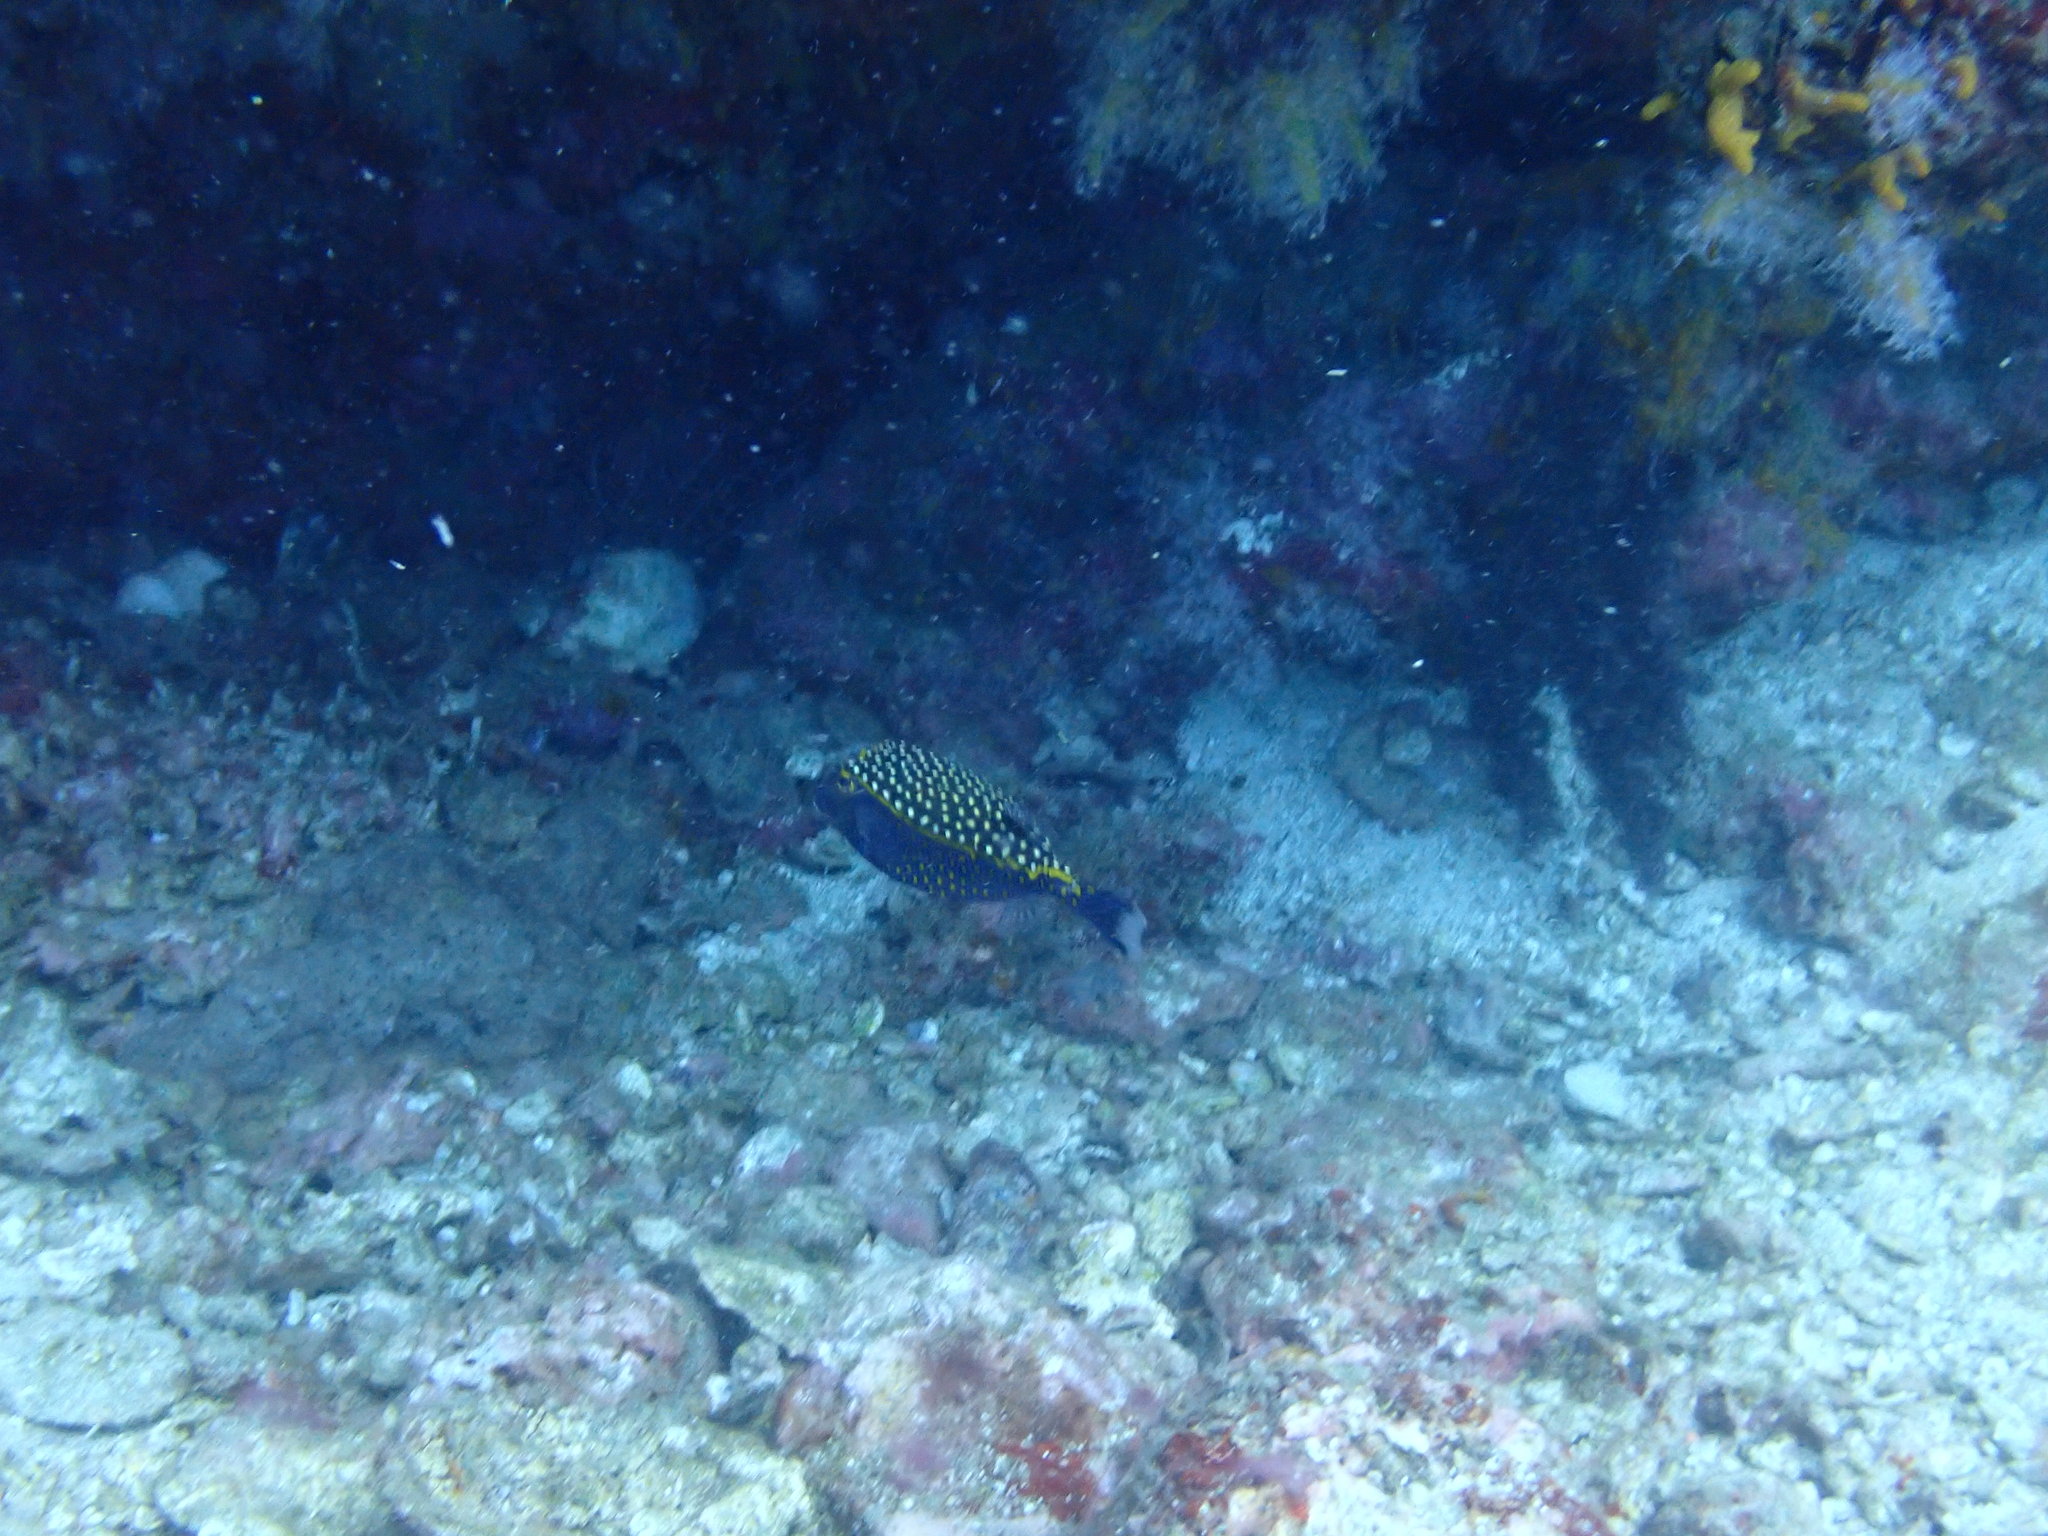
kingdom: Animalia
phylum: Chordata
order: Tetraodontiformes
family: Ostraciidae
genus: Ostracion
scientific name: Ostracion meleagris
